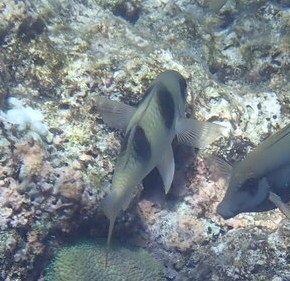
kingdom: Animalia
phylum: Chordata
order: Perciformes
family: Mullidae
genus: Parupeneus
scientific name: Parupeneus crassilabris
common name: Doublebar goatfish
